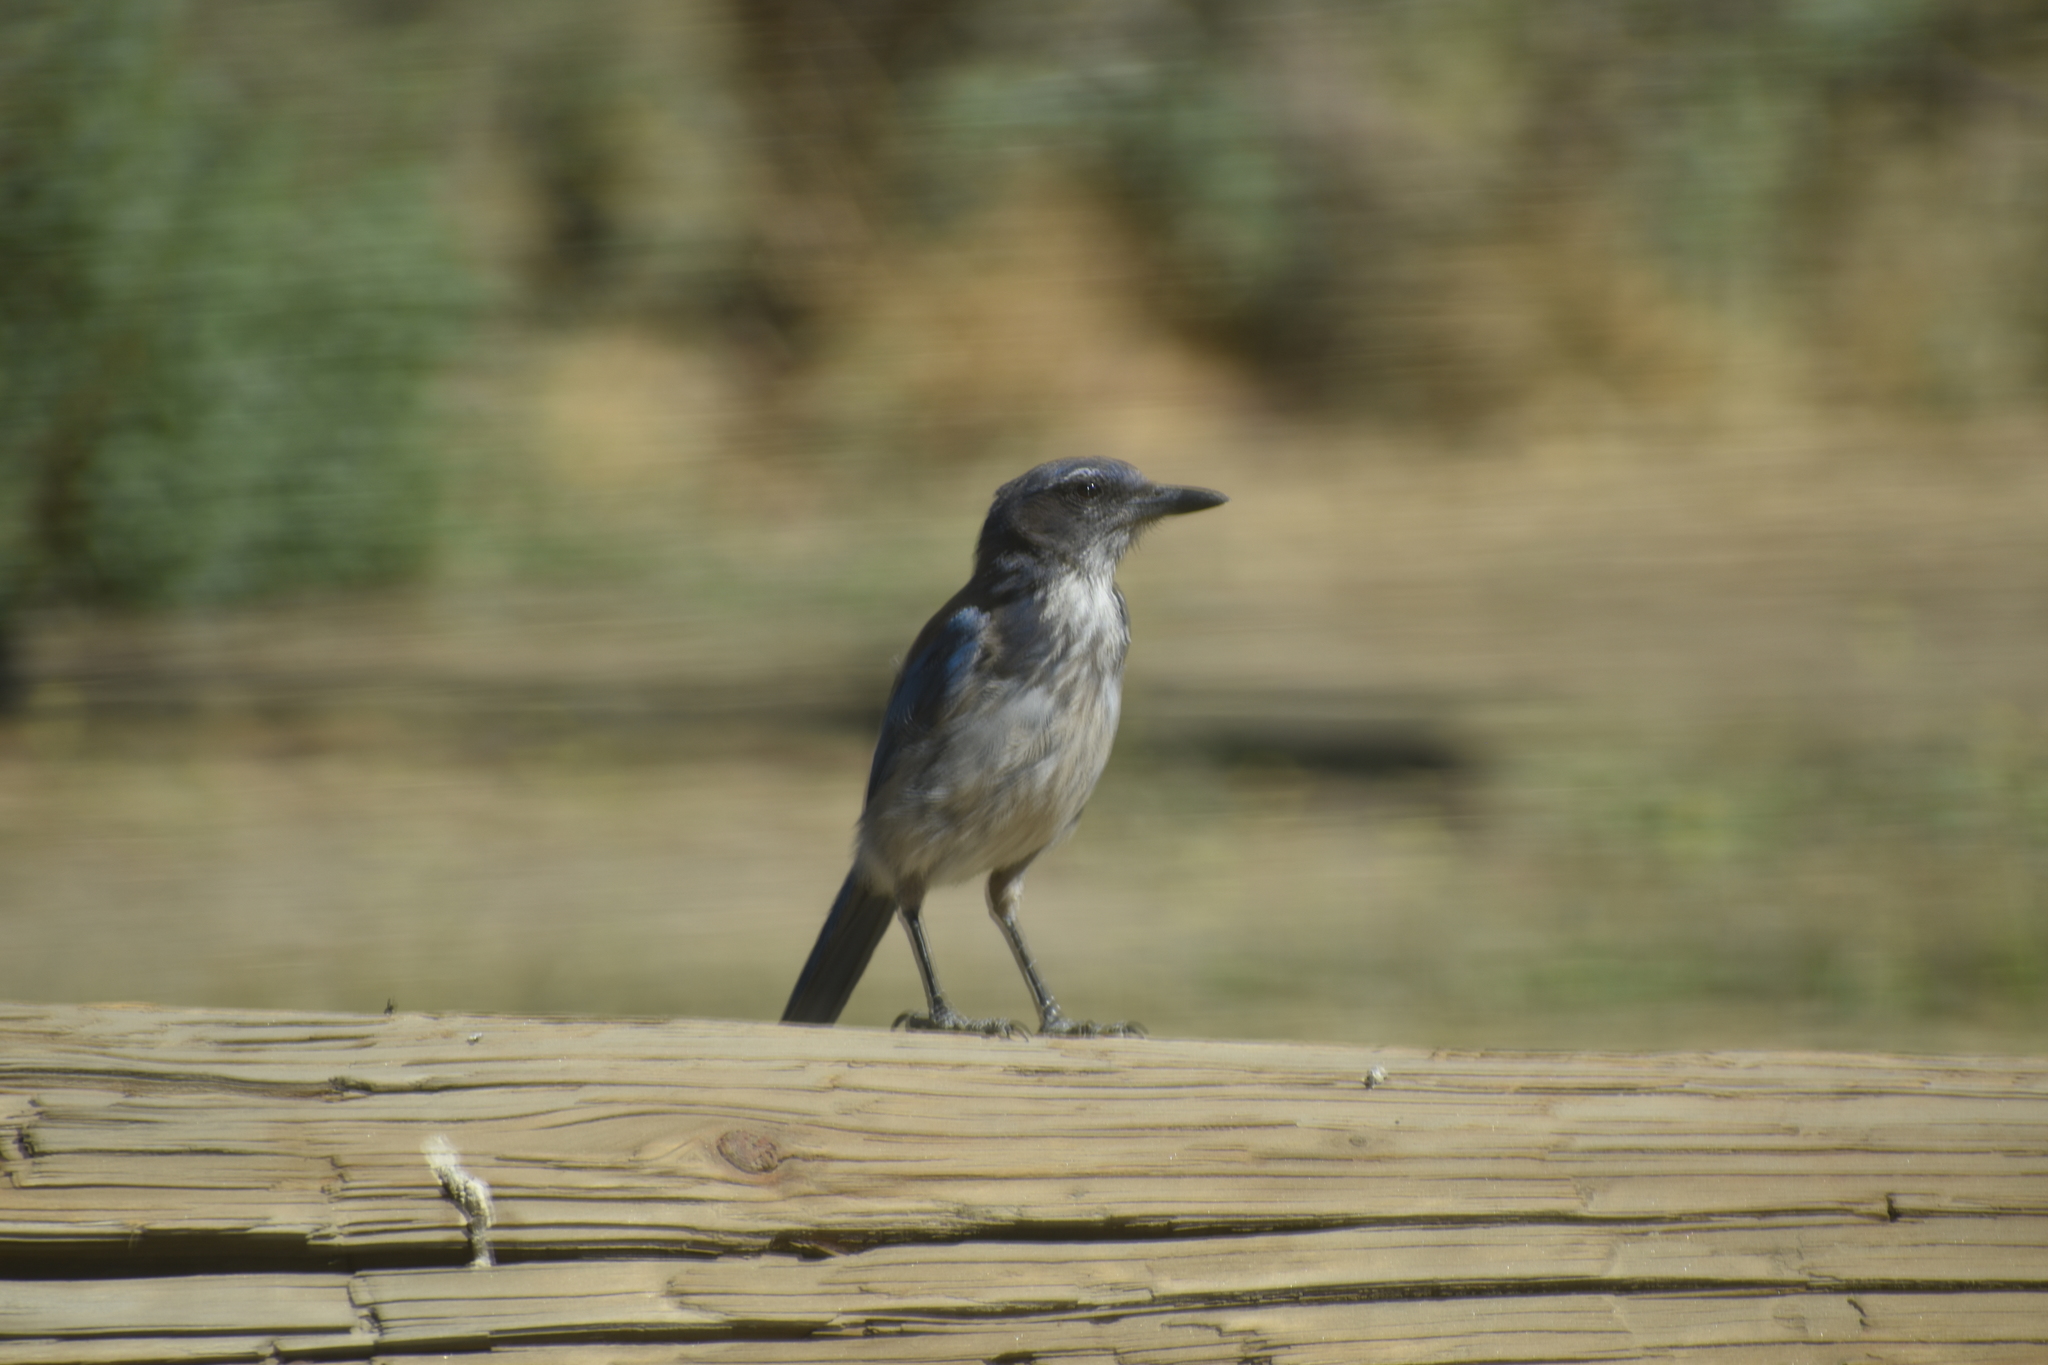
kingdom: Animalia
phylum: Chordata
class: Aves
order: Passeriformes
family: Corvidae
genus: Aphelocoma
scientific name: Aphelocoma californica
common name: California scrub-jay
